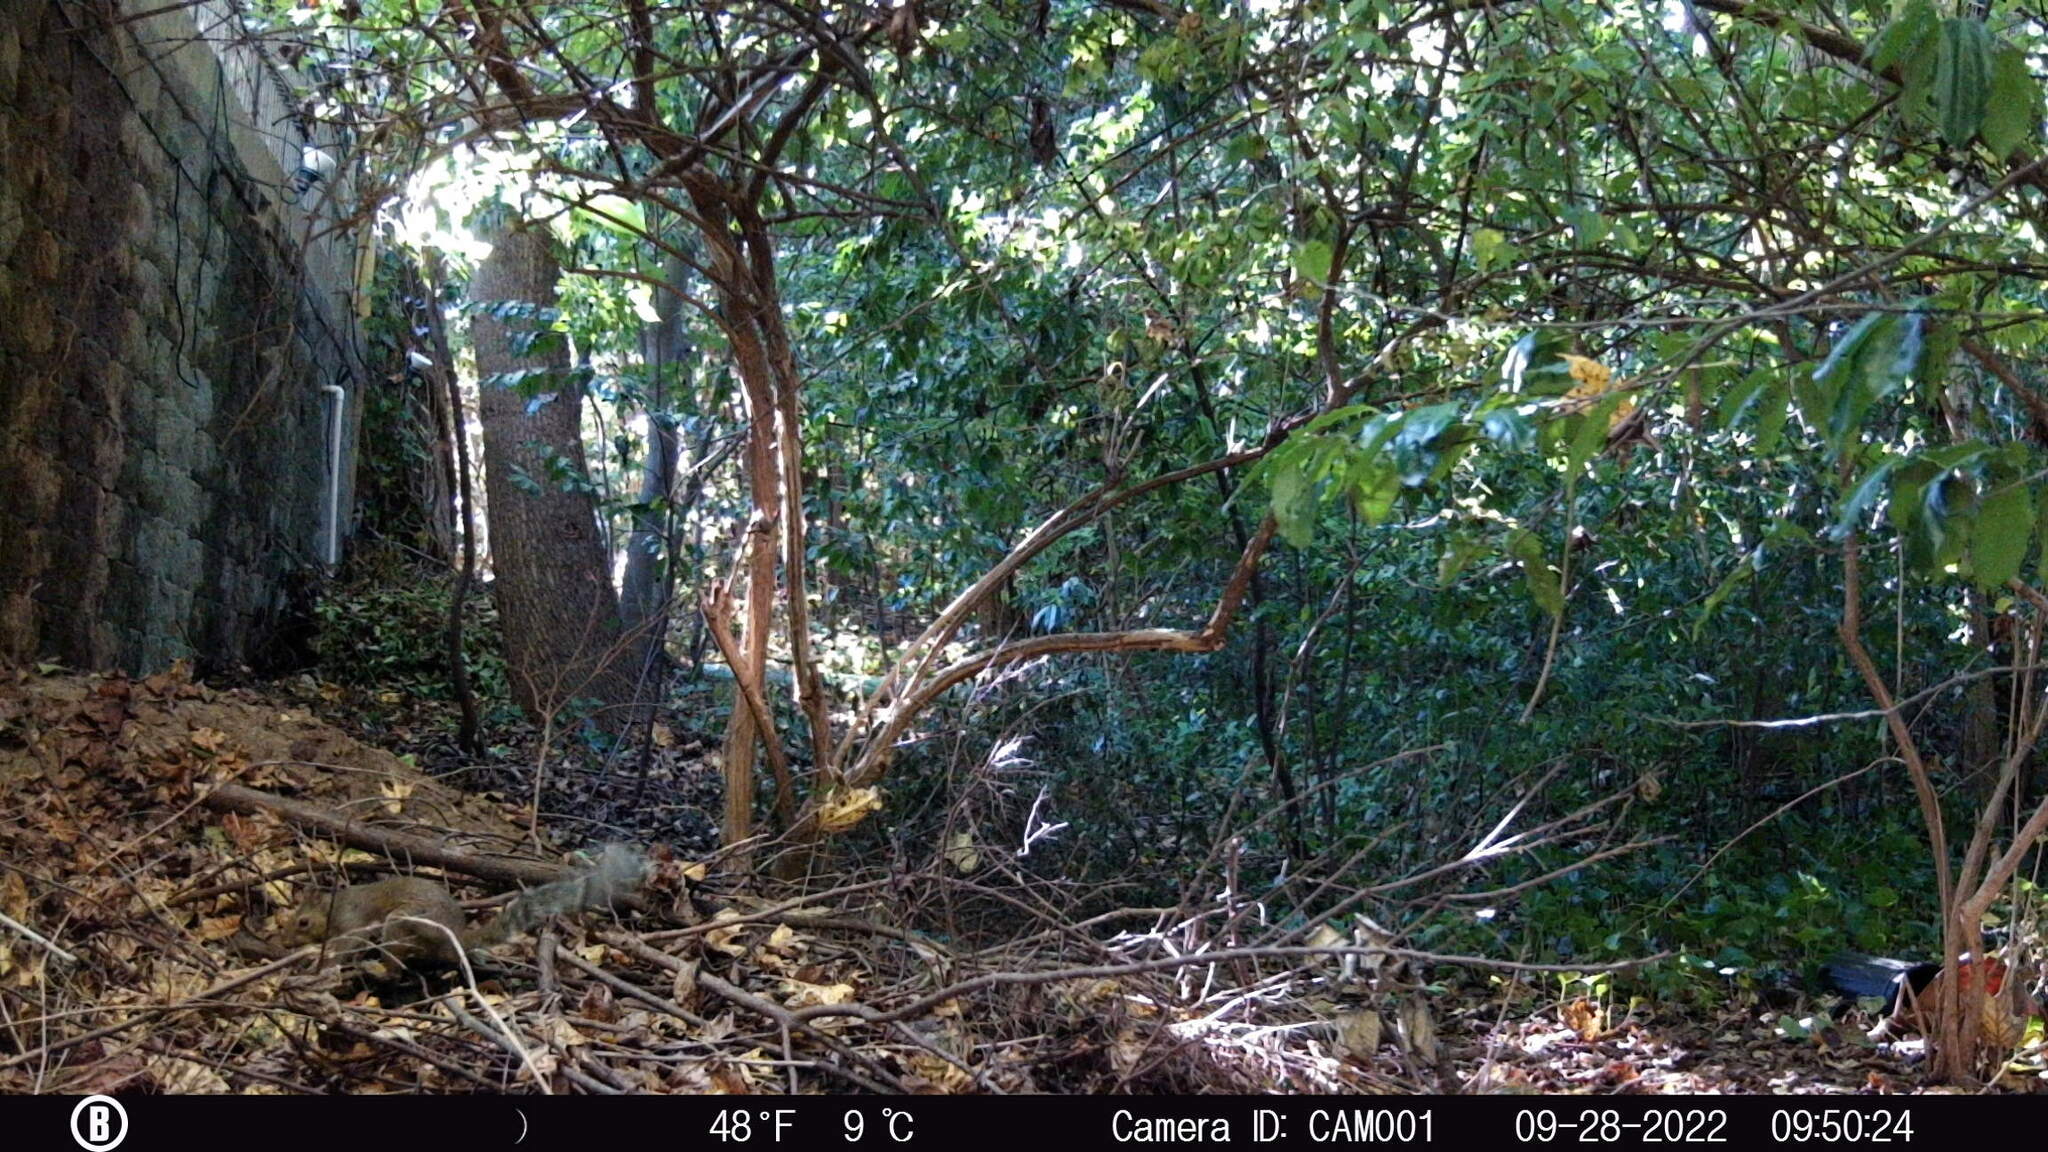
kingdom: Animalia
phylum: Chordata
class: Mammalia
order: Rodentia
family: Sciuridae
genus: Sciurus
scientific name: Sciurus carolinensis
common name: Eastern gray squirrel
